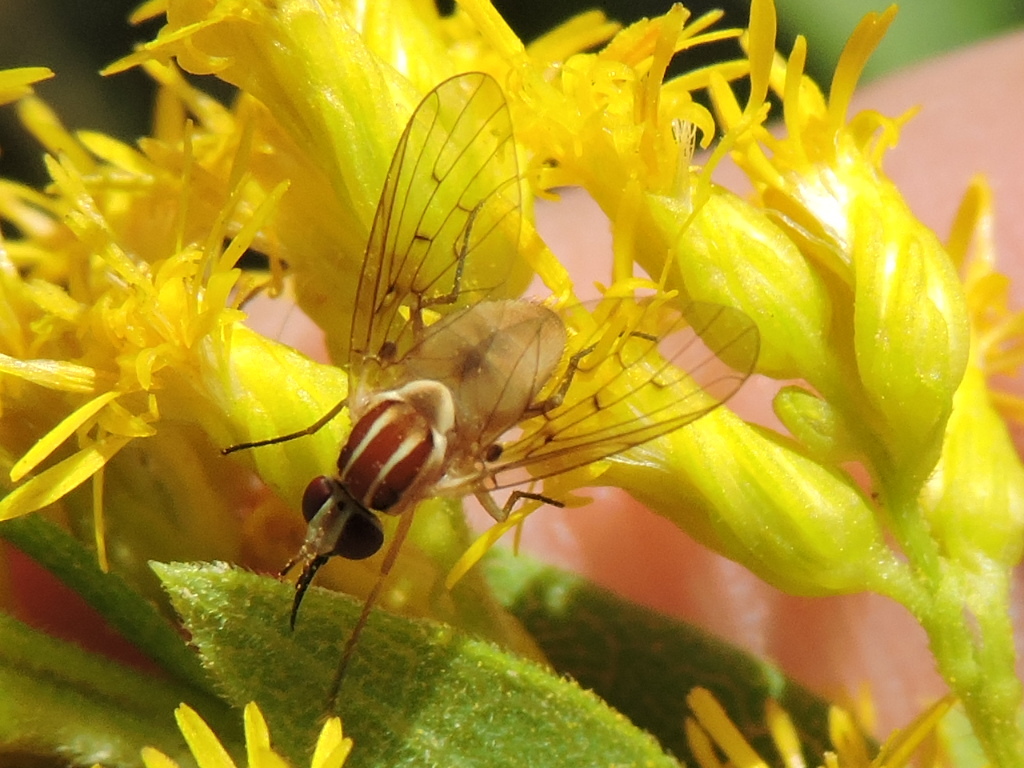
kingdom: Animalia
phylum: Arthropoda
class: Insecta
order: Diptera
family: Bombyliidae
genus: Poecilognathus
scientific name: Poecilognathus unimaculatus
